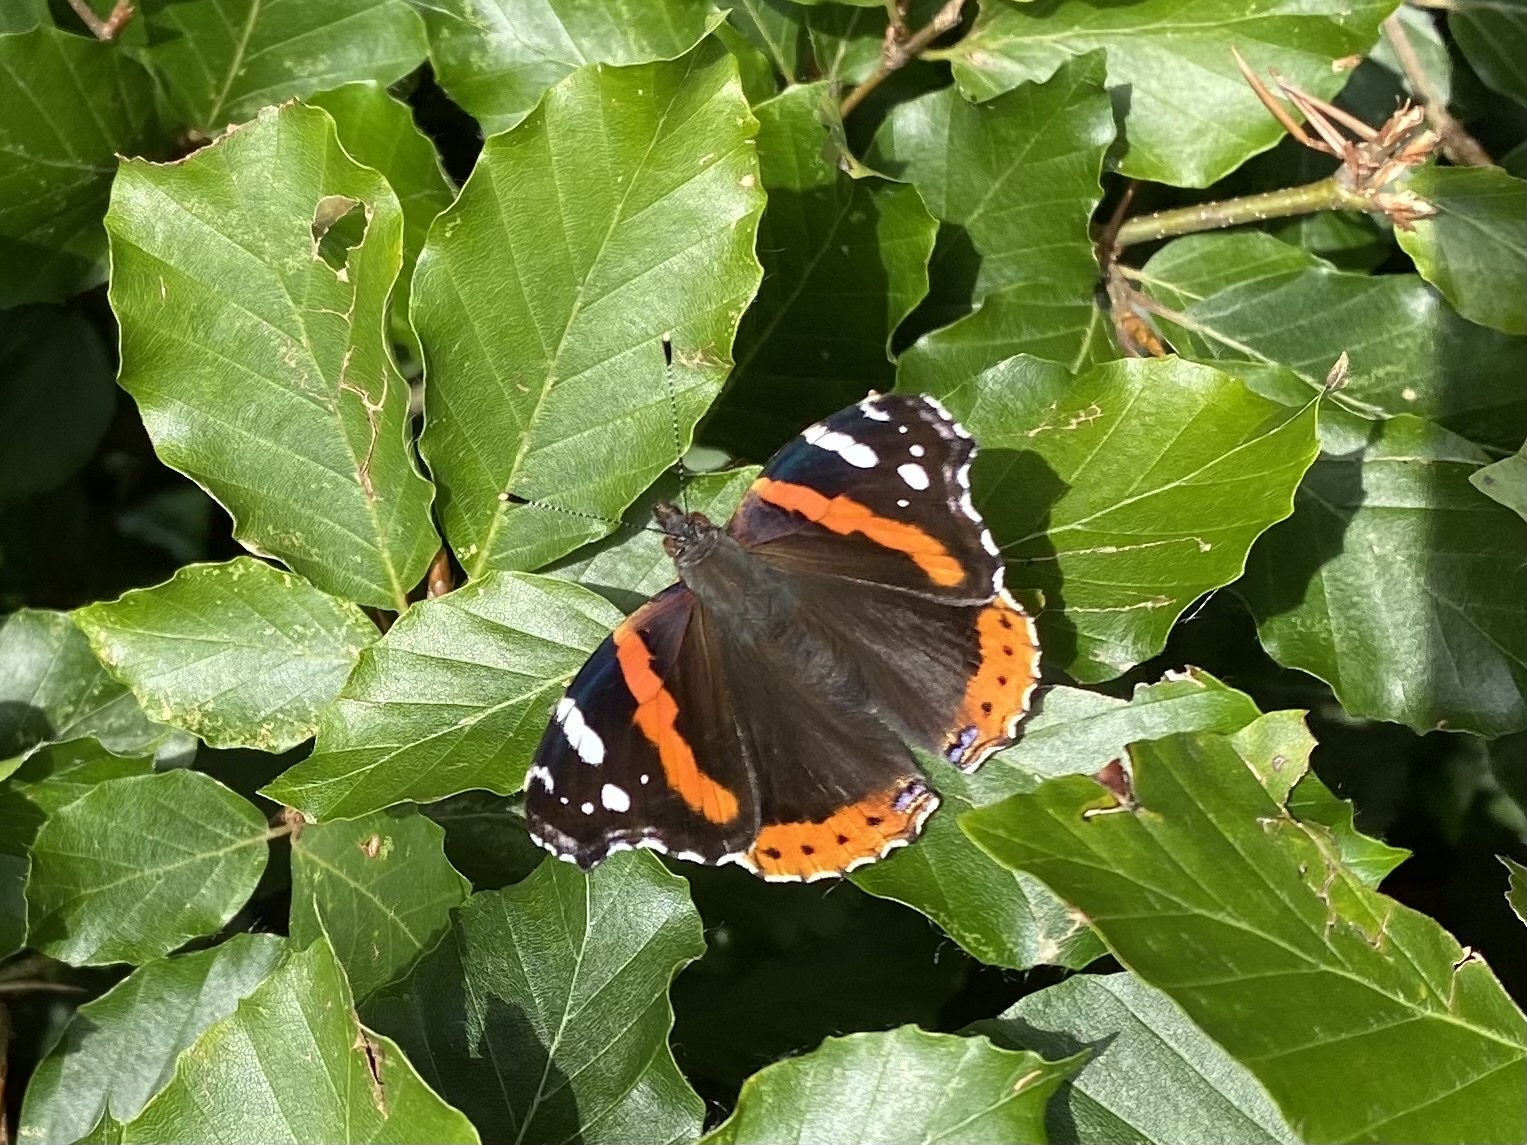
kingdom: Animalia
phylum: Arthropoda
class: Insecta
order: Lepidoptera
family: Nymphalidae
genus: Vanessa
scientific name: Vanessa atalanta
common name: Red admiral
